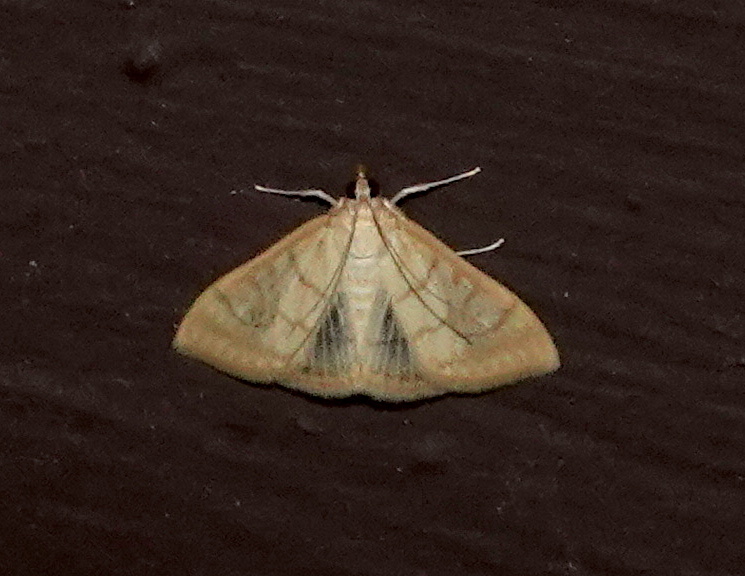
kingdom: Animalia
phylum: Arthropoda
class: Insecta
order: Lepidoptera
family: Crambidae
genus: Hahncappsia
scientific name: Hahncappsia mancalis
